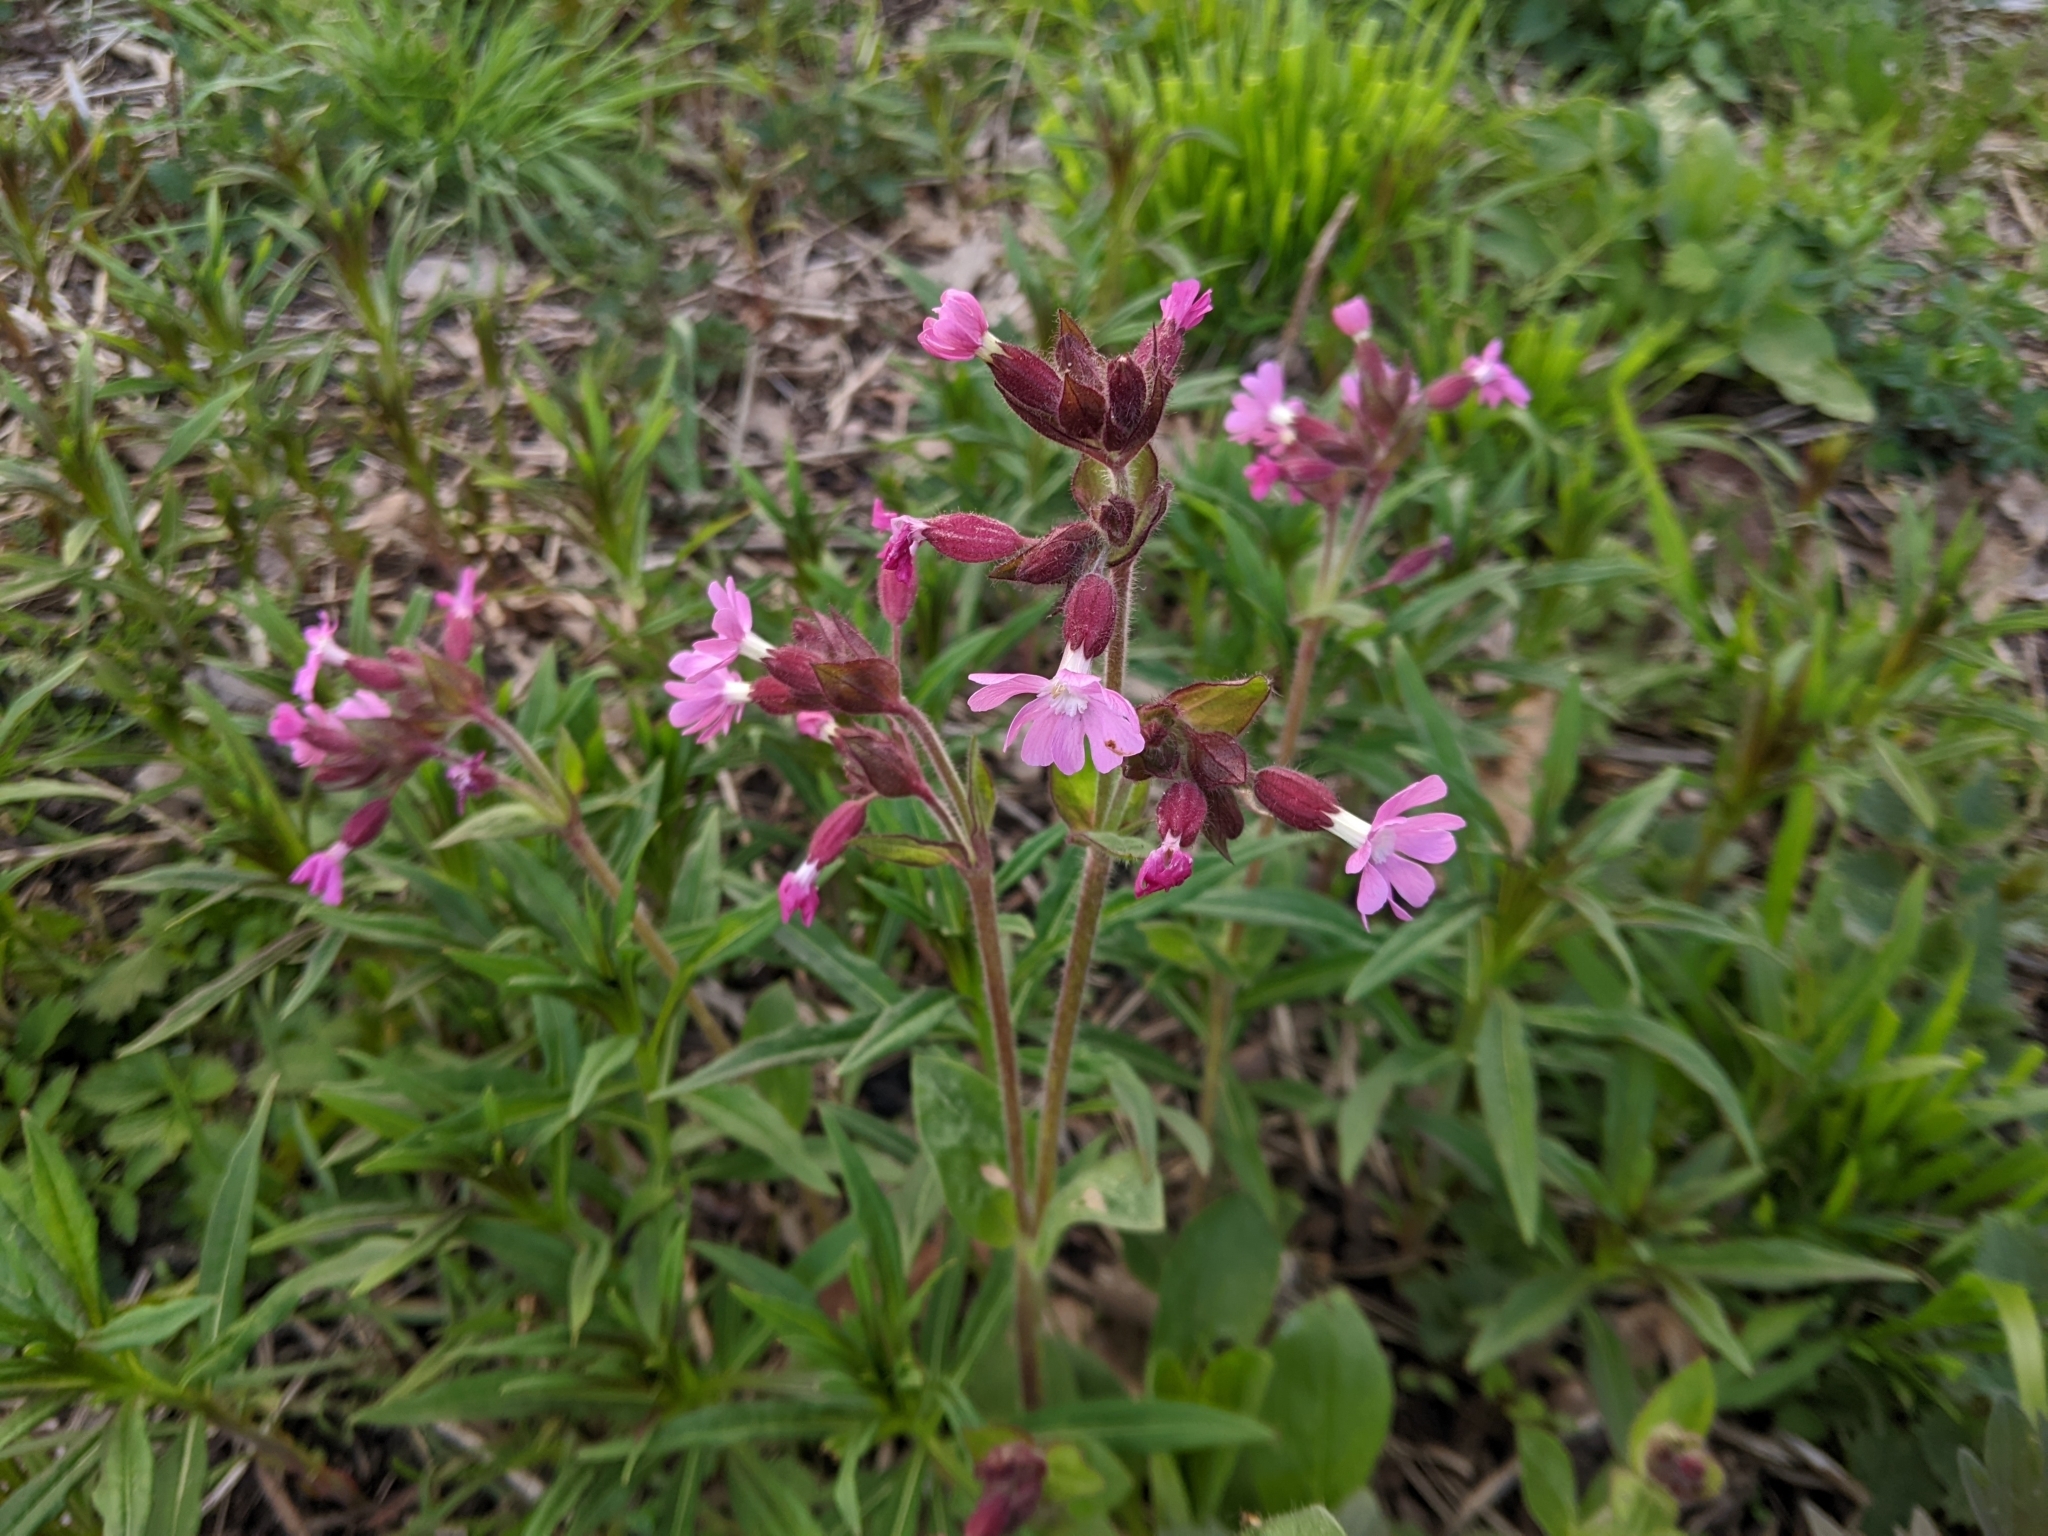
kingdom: Plantae
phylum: Tracheophyta
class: Magnoliopsida
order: Caryophyllales
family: Caryophyllaceae
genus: Silene
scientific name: Silene dioica
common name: Red campion
